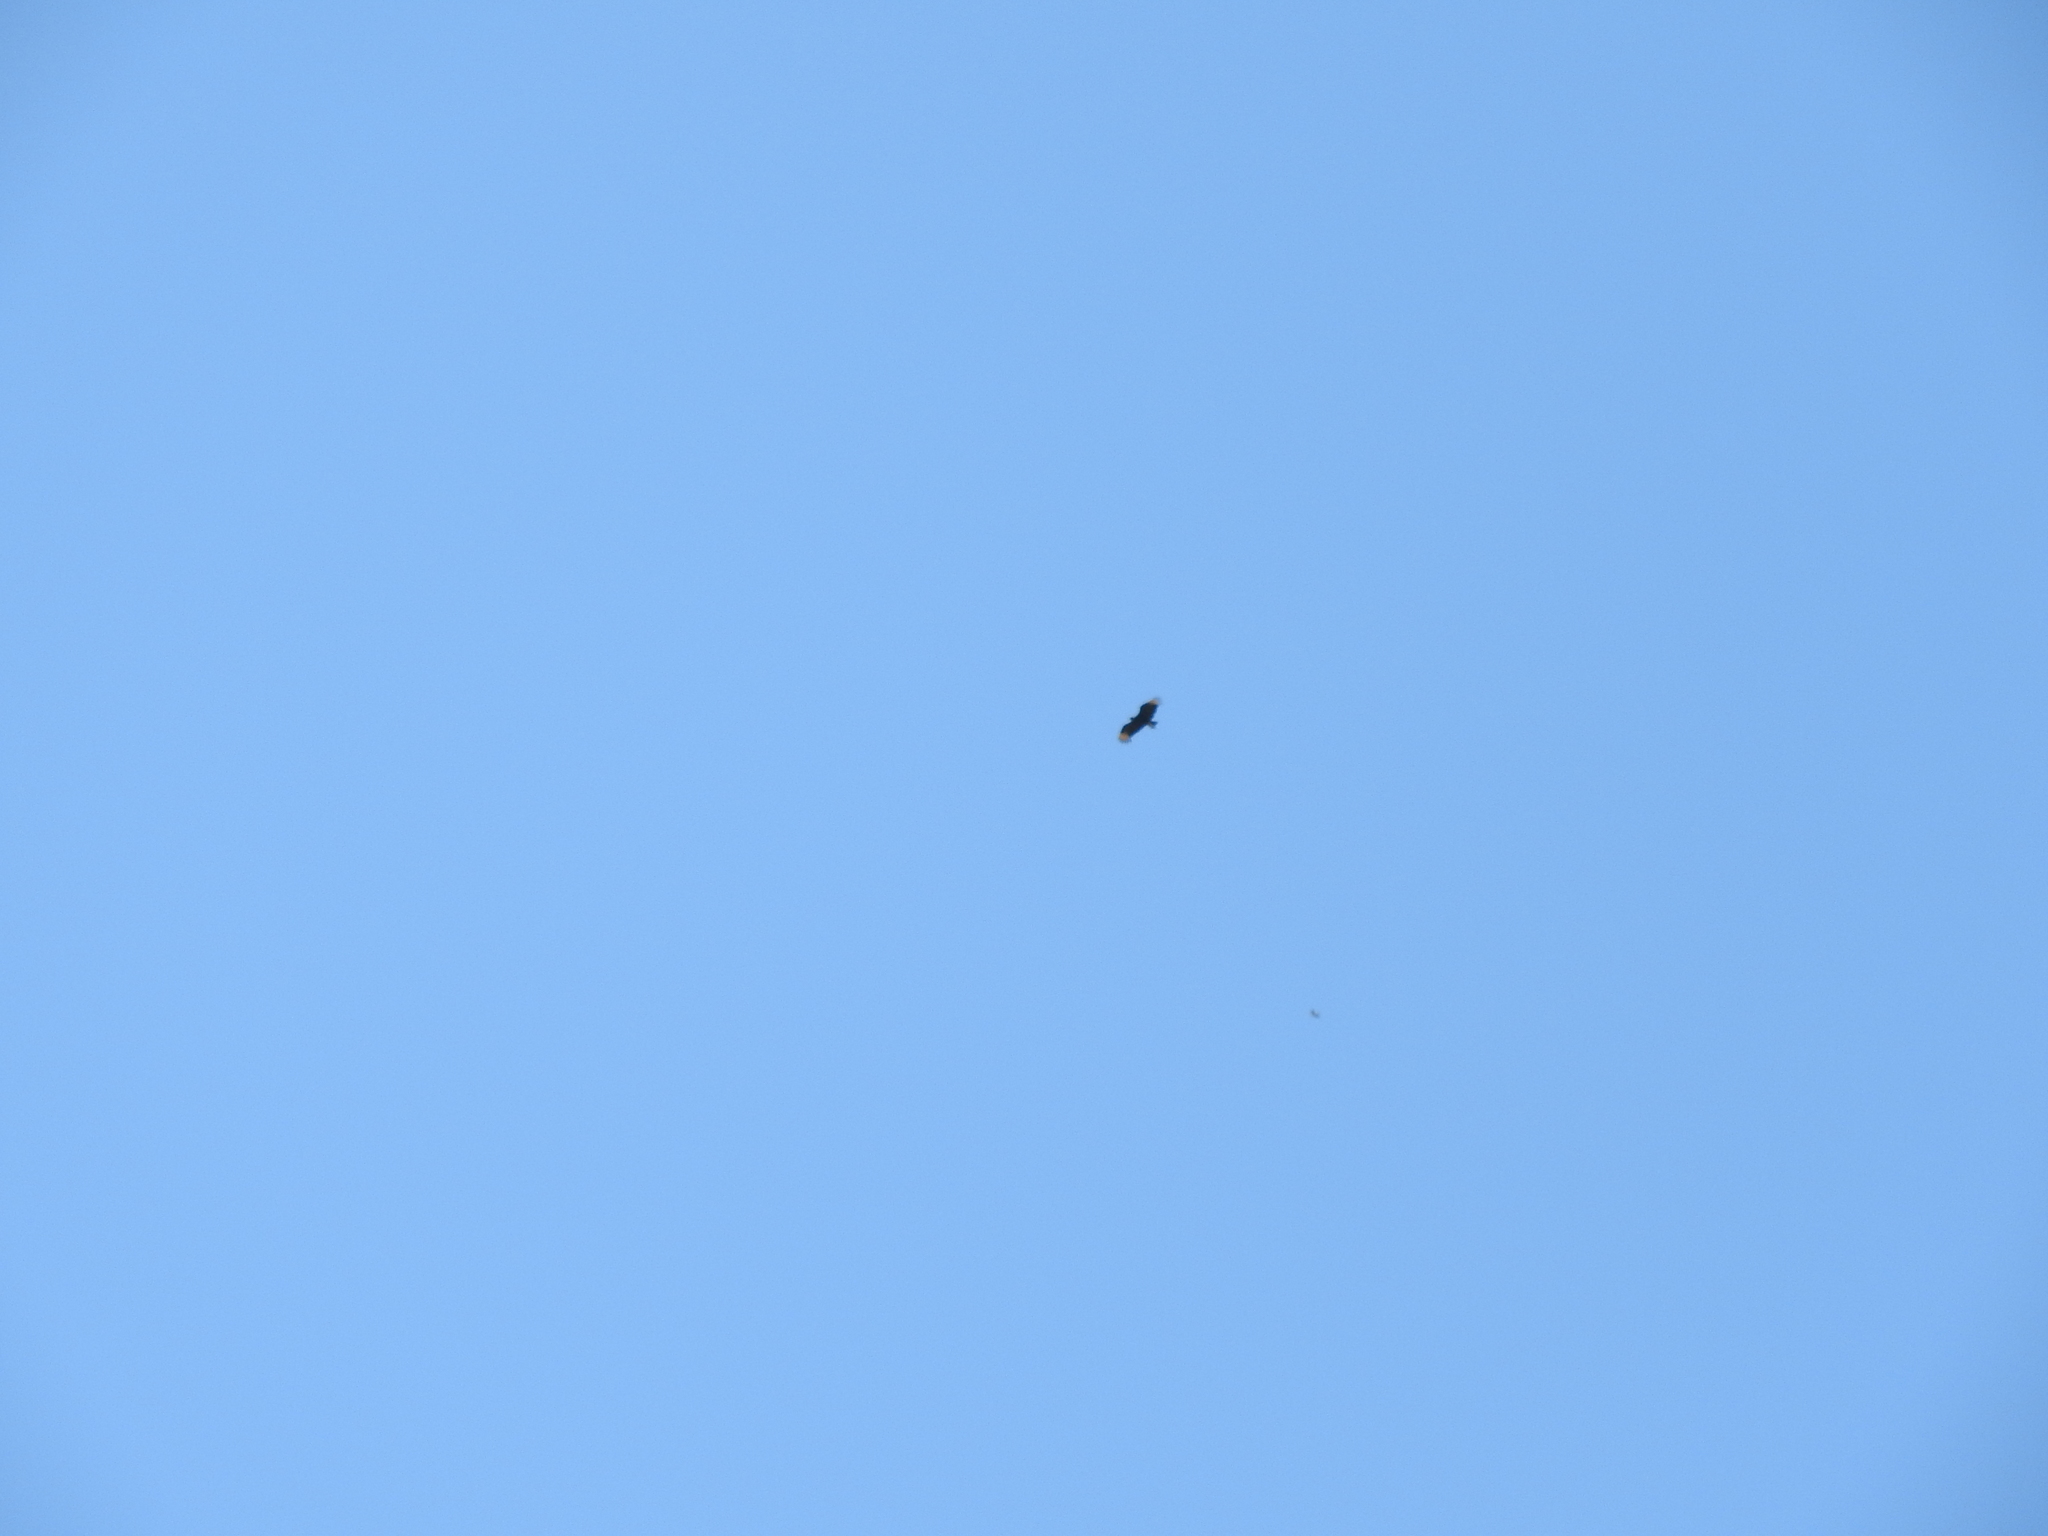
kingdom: Animalia
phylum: Chordata
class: Aves
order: Accipitriformes
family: Cathartidae
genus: Coragyps
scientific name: Coragyps atratus
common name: Black vulture
